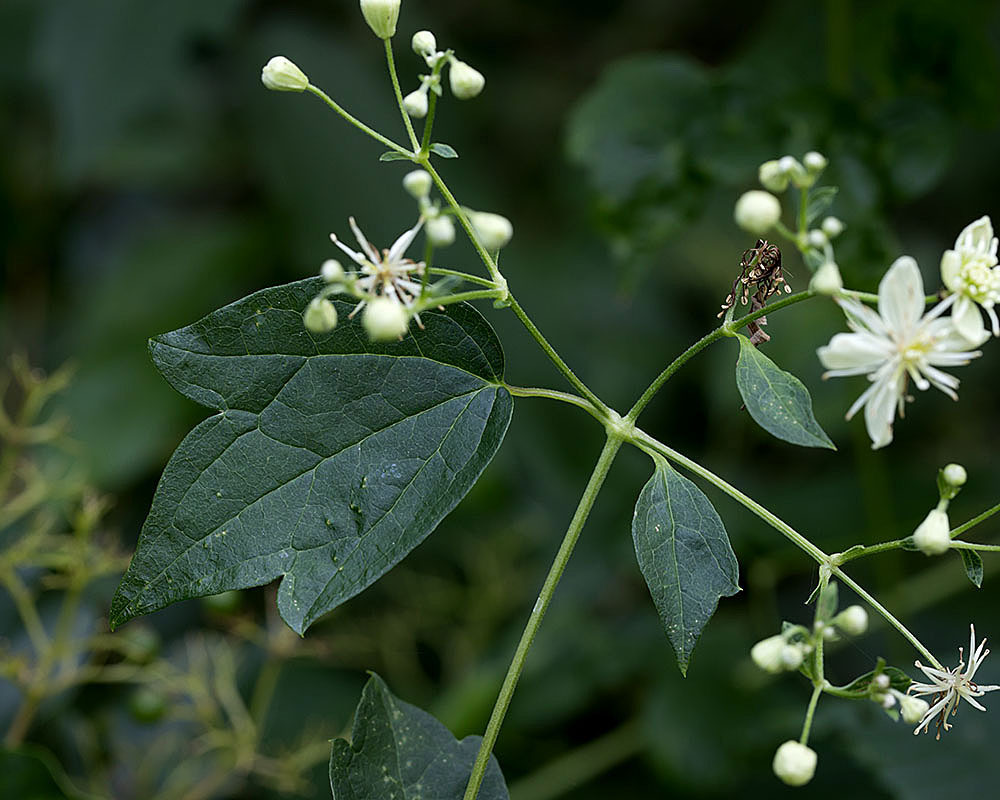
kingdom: Plantae
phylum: Tracheophyta
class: Magnoliopsida
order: Ranunculales
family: Ranunculaceae
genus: Clematis
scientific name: Clematis virginiana
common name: Virgin's-bower
